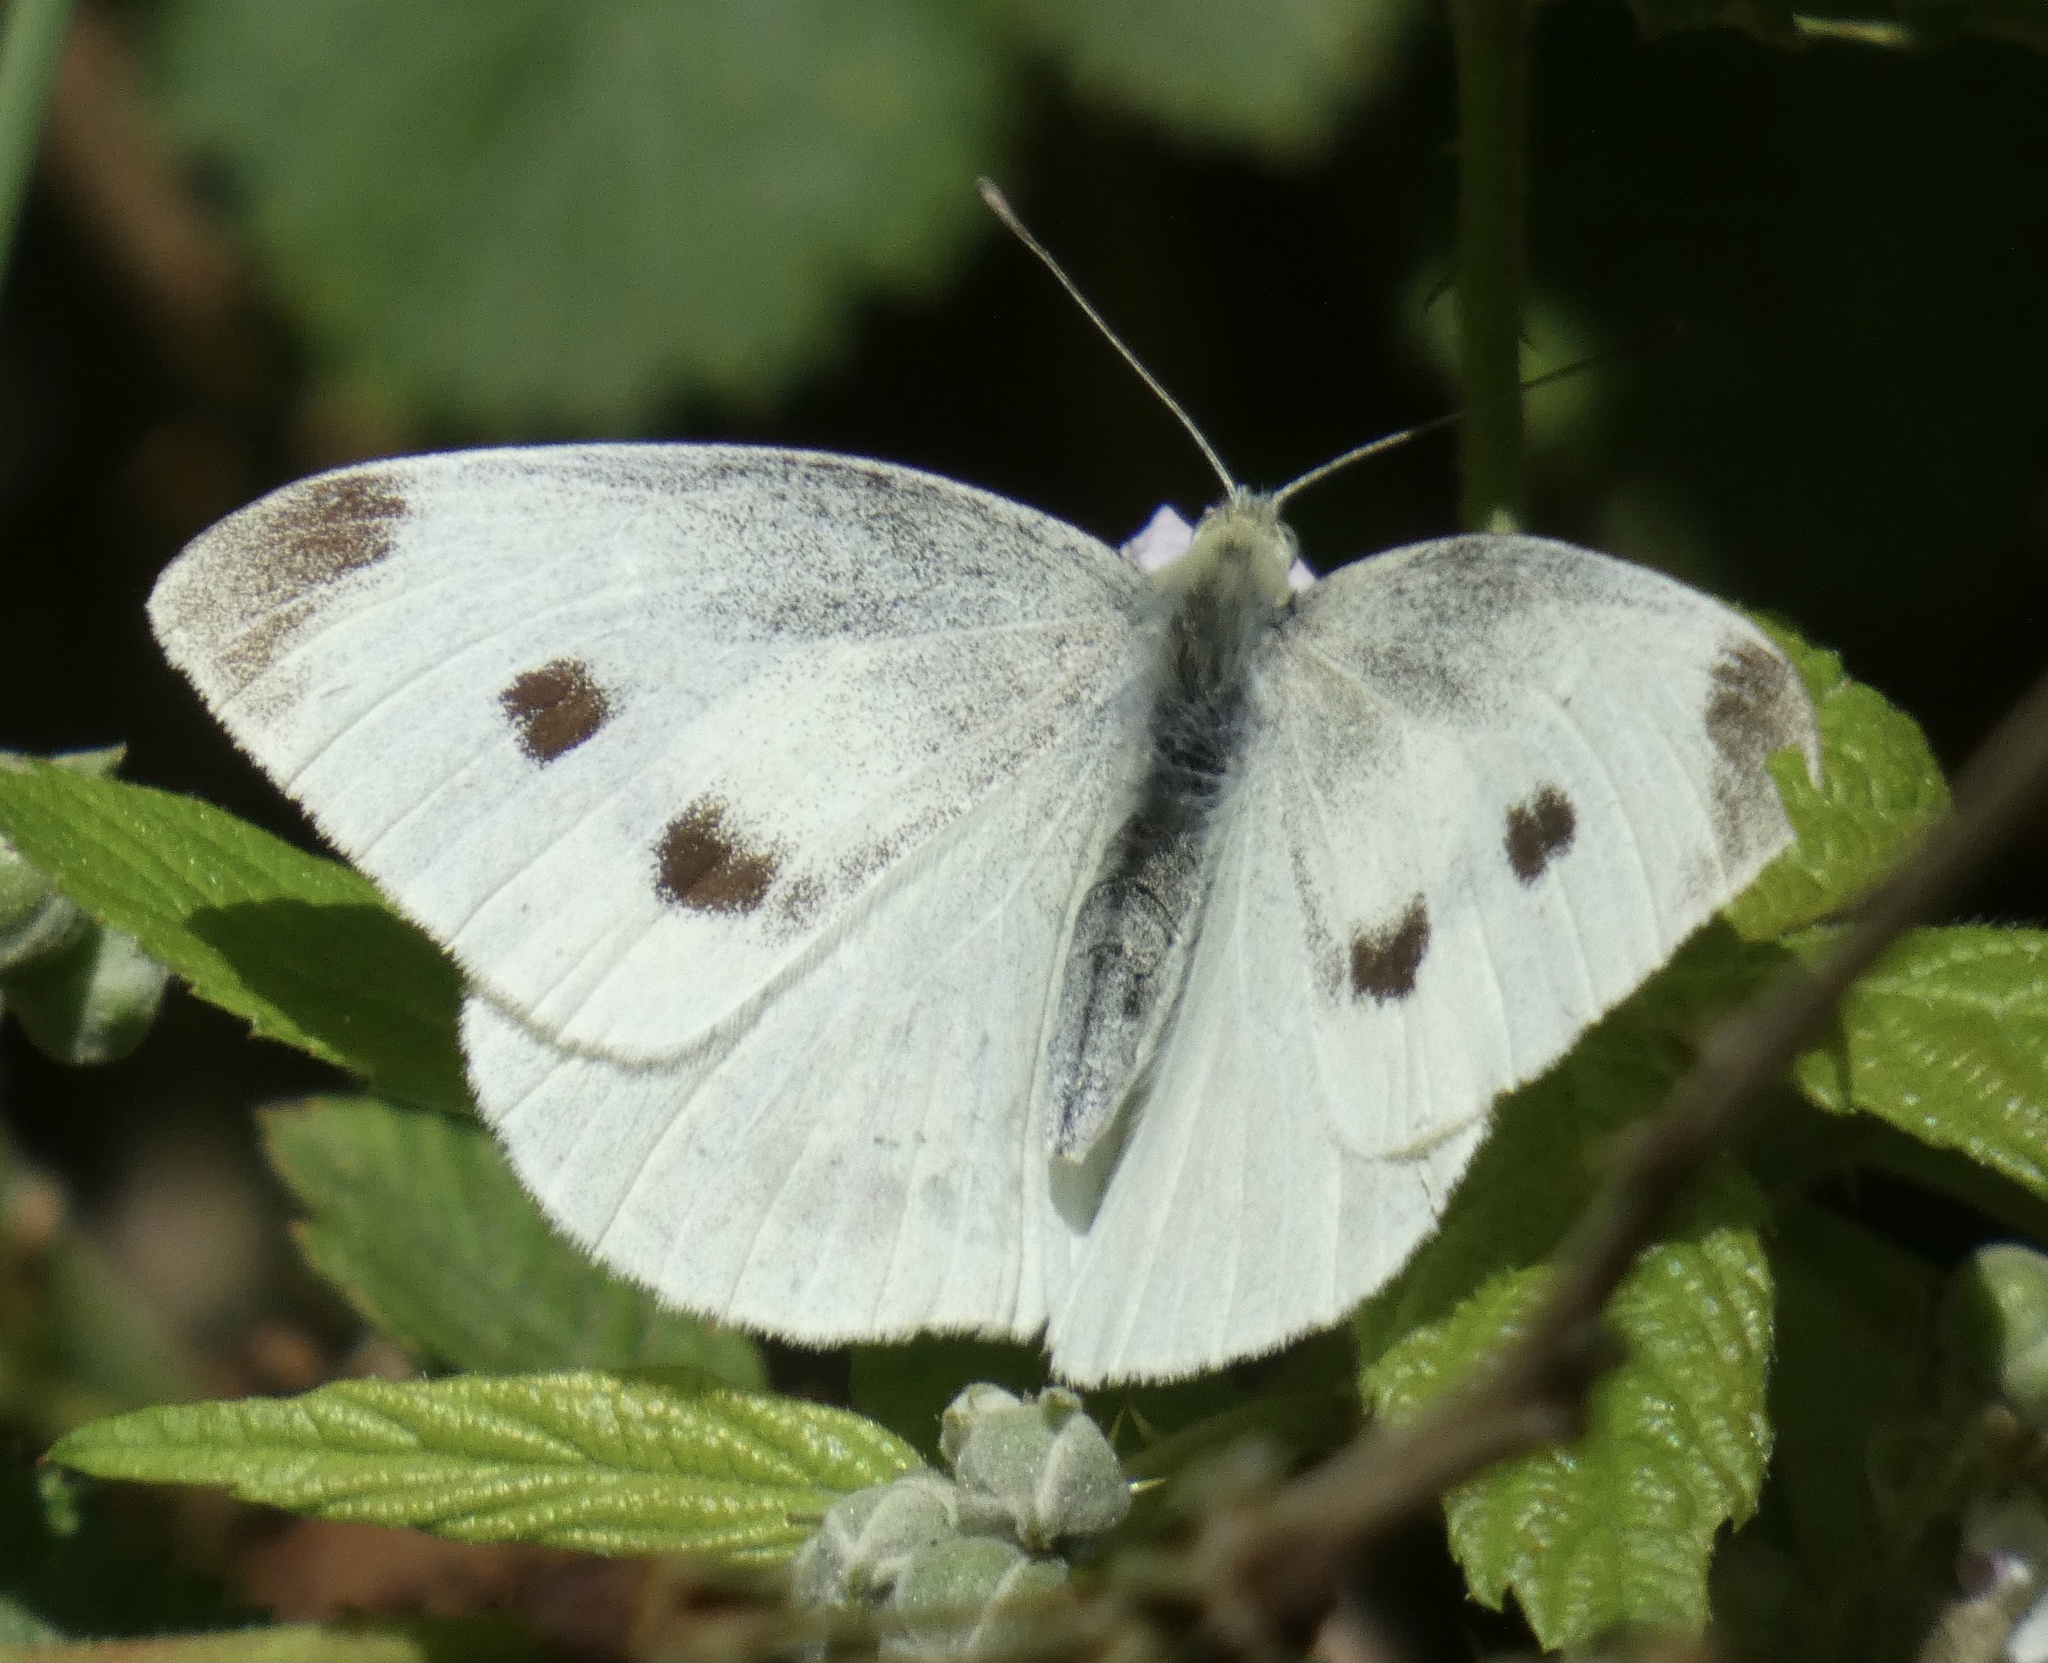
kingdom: Animalia
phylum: Arthropoda
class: Insecta
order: Lepidoptera
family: Pieridae
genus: Pieris
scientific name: Pieris rapae
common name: Small white
